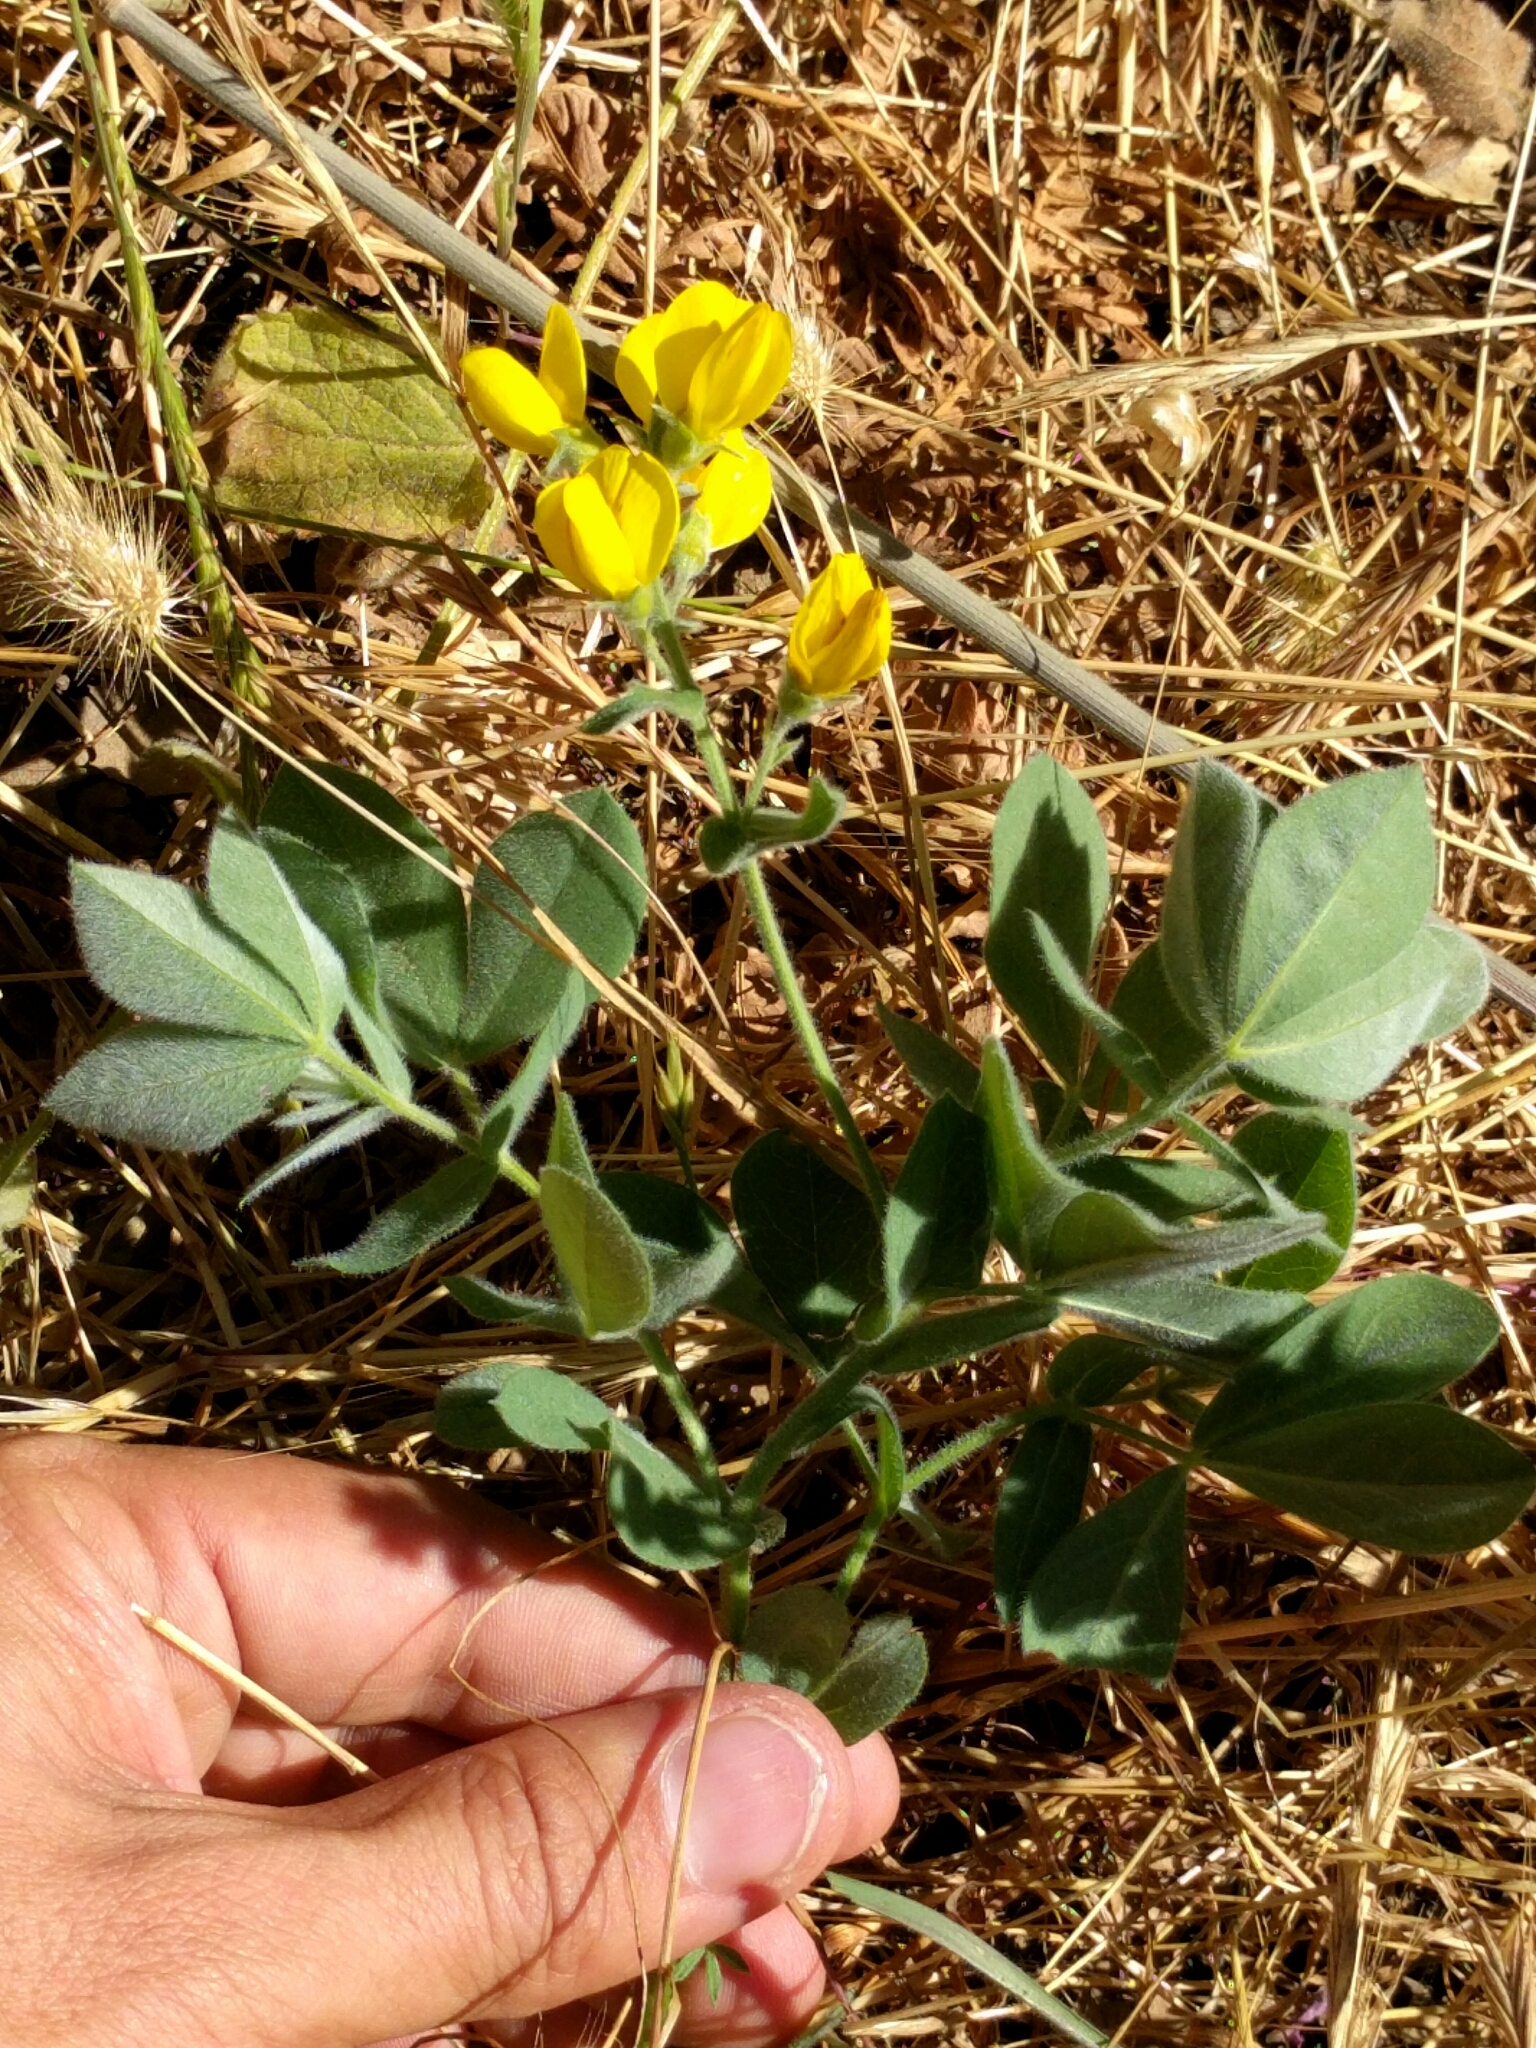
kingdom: Plantae
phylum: Tracheophyta
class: Magnoliopsida
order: Fabales
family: Fabaceae
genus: Thermopsis
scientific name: Thermopsis californica
